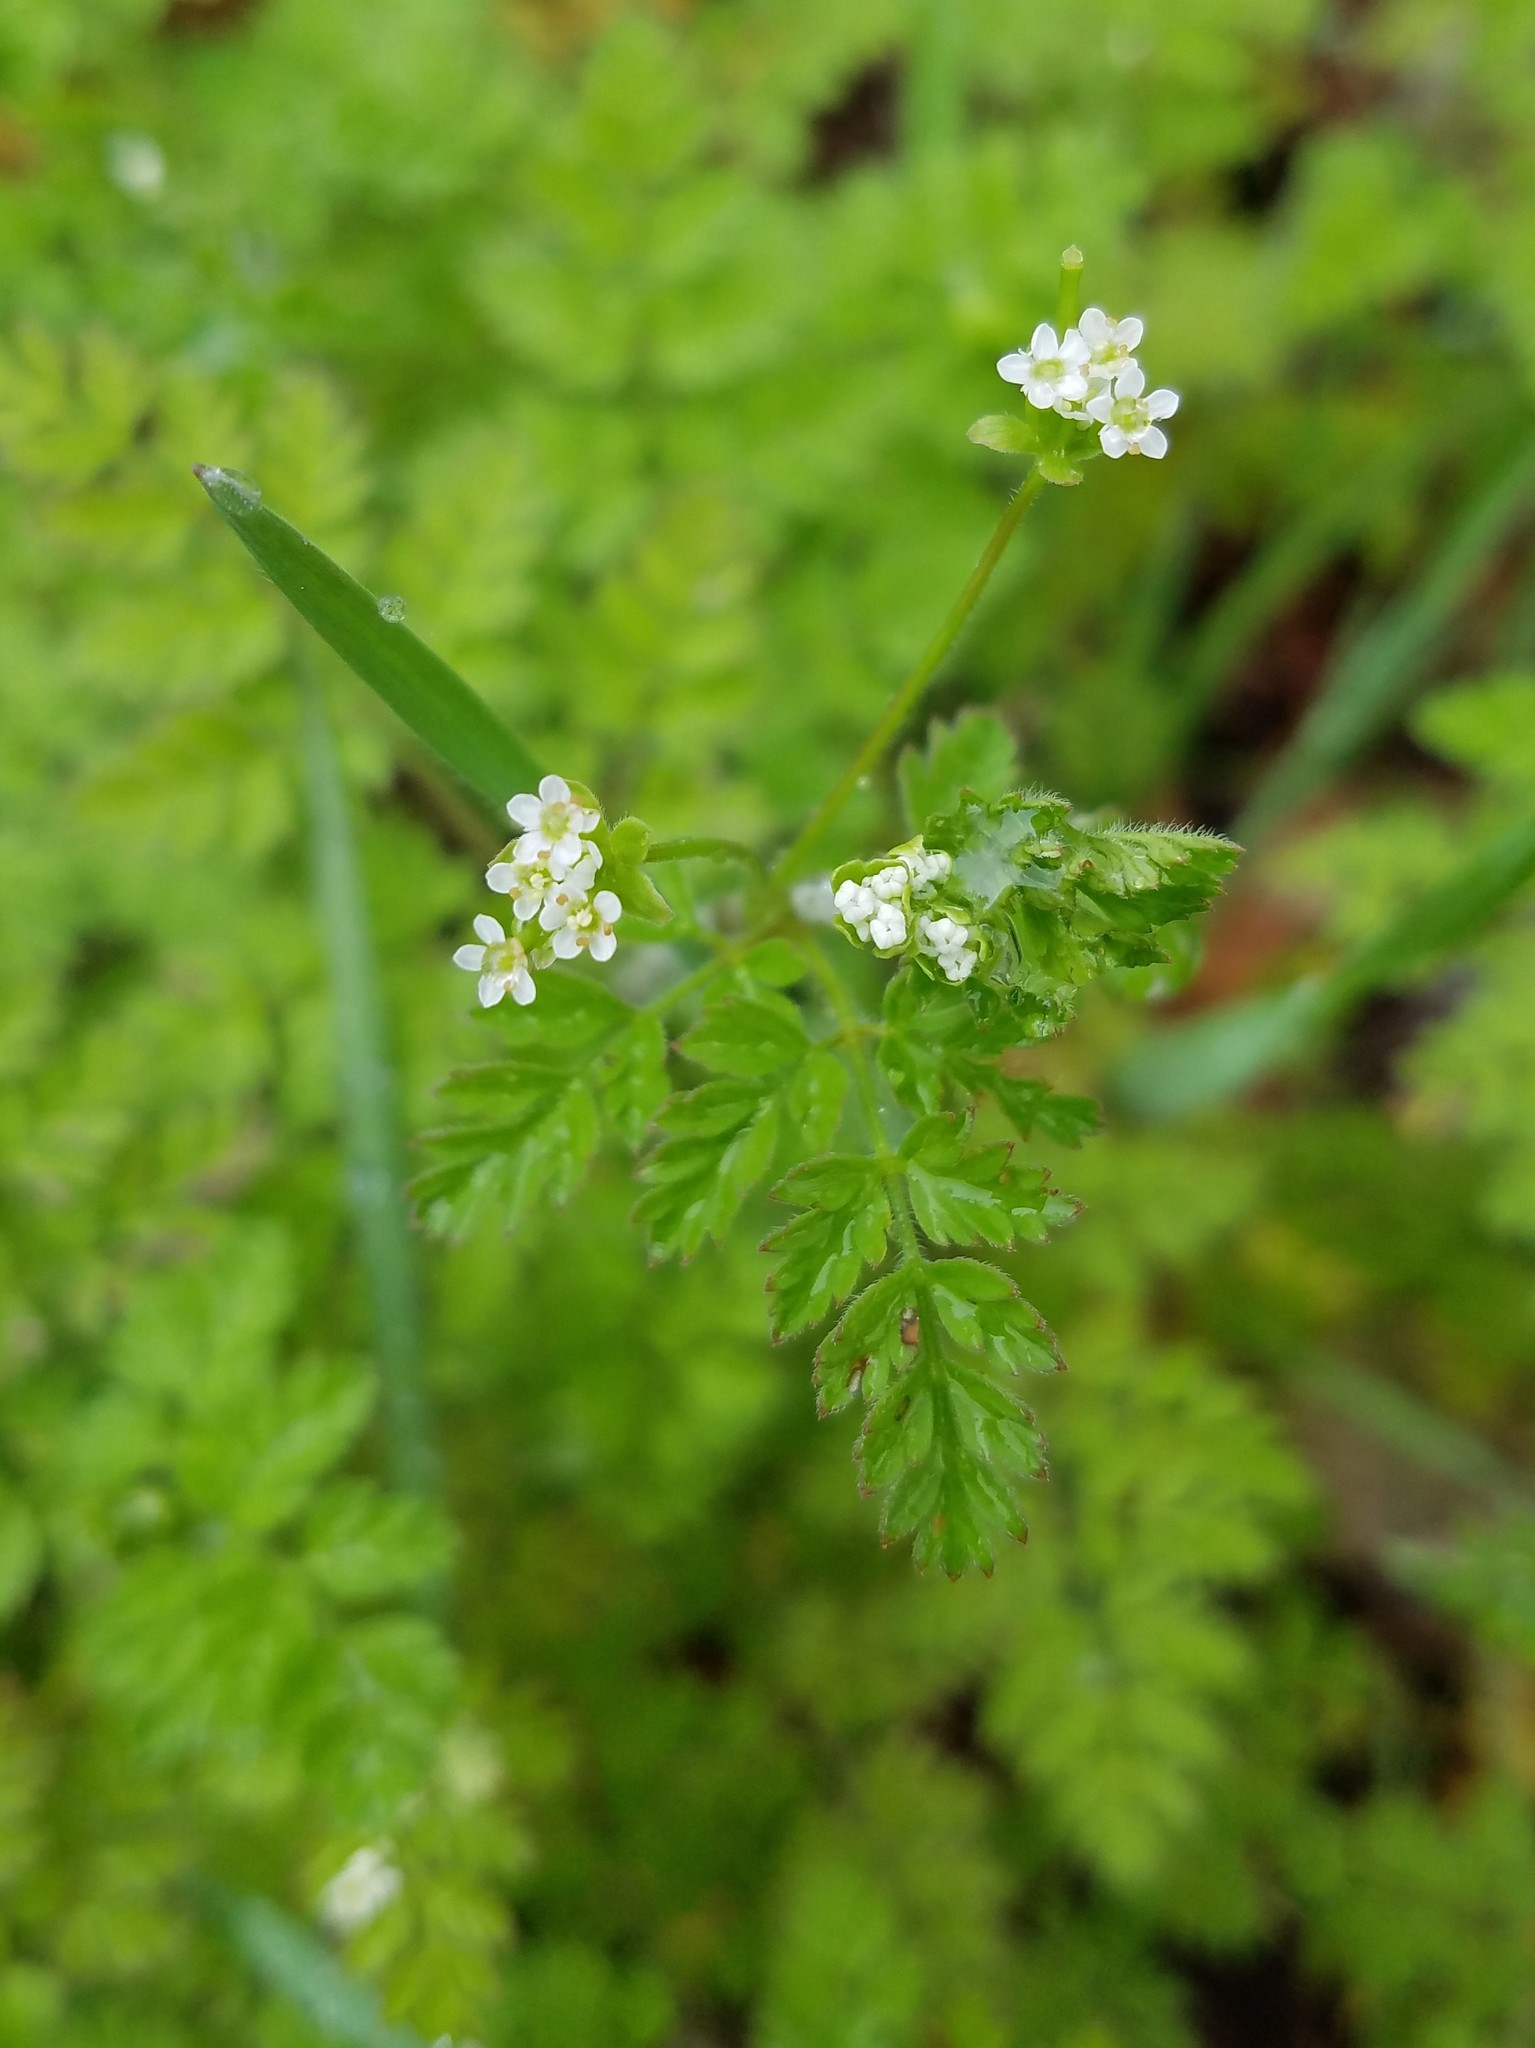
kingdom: Plantae
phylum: Tracheophyta
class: Magnoliopsida
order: Apiales
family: Apiaceae
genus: Chaerophyllum
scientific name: Chaerophyllum tainturieri
